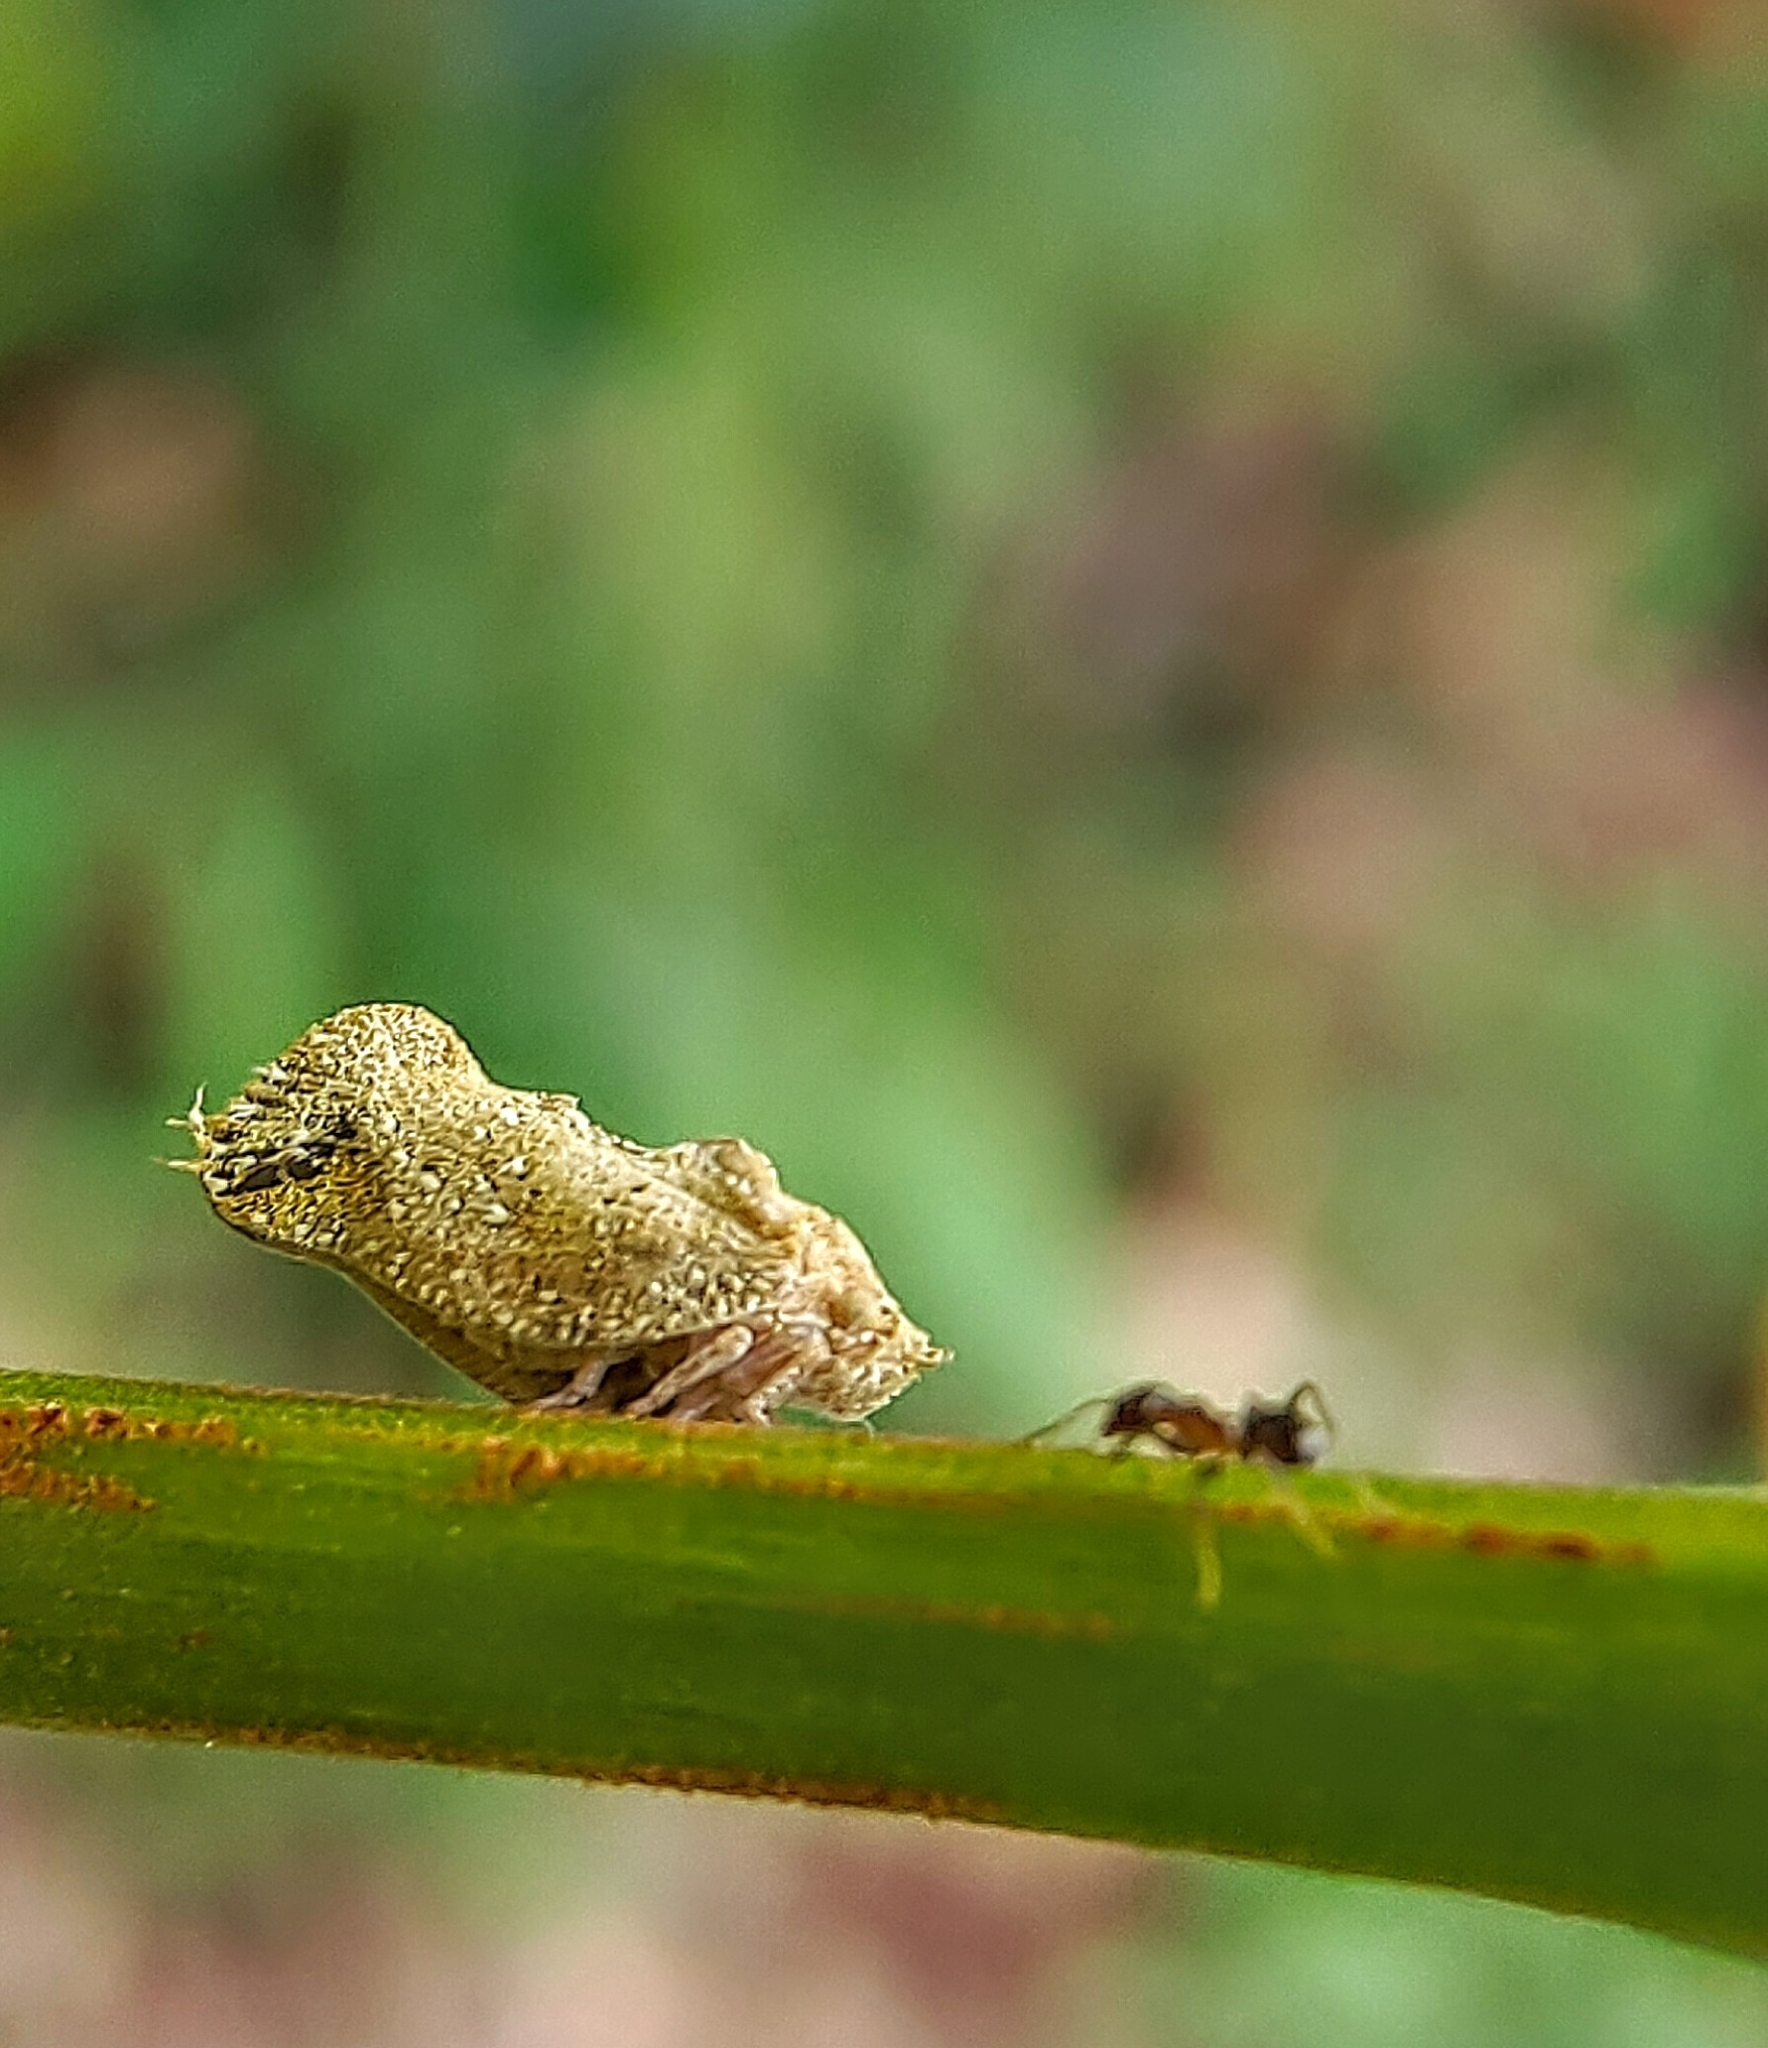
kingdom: Animalia
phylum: Arthropoda
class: Insecta
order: Hemiptera
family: Flatidae
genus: Seliza
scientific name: Seliza vidua
